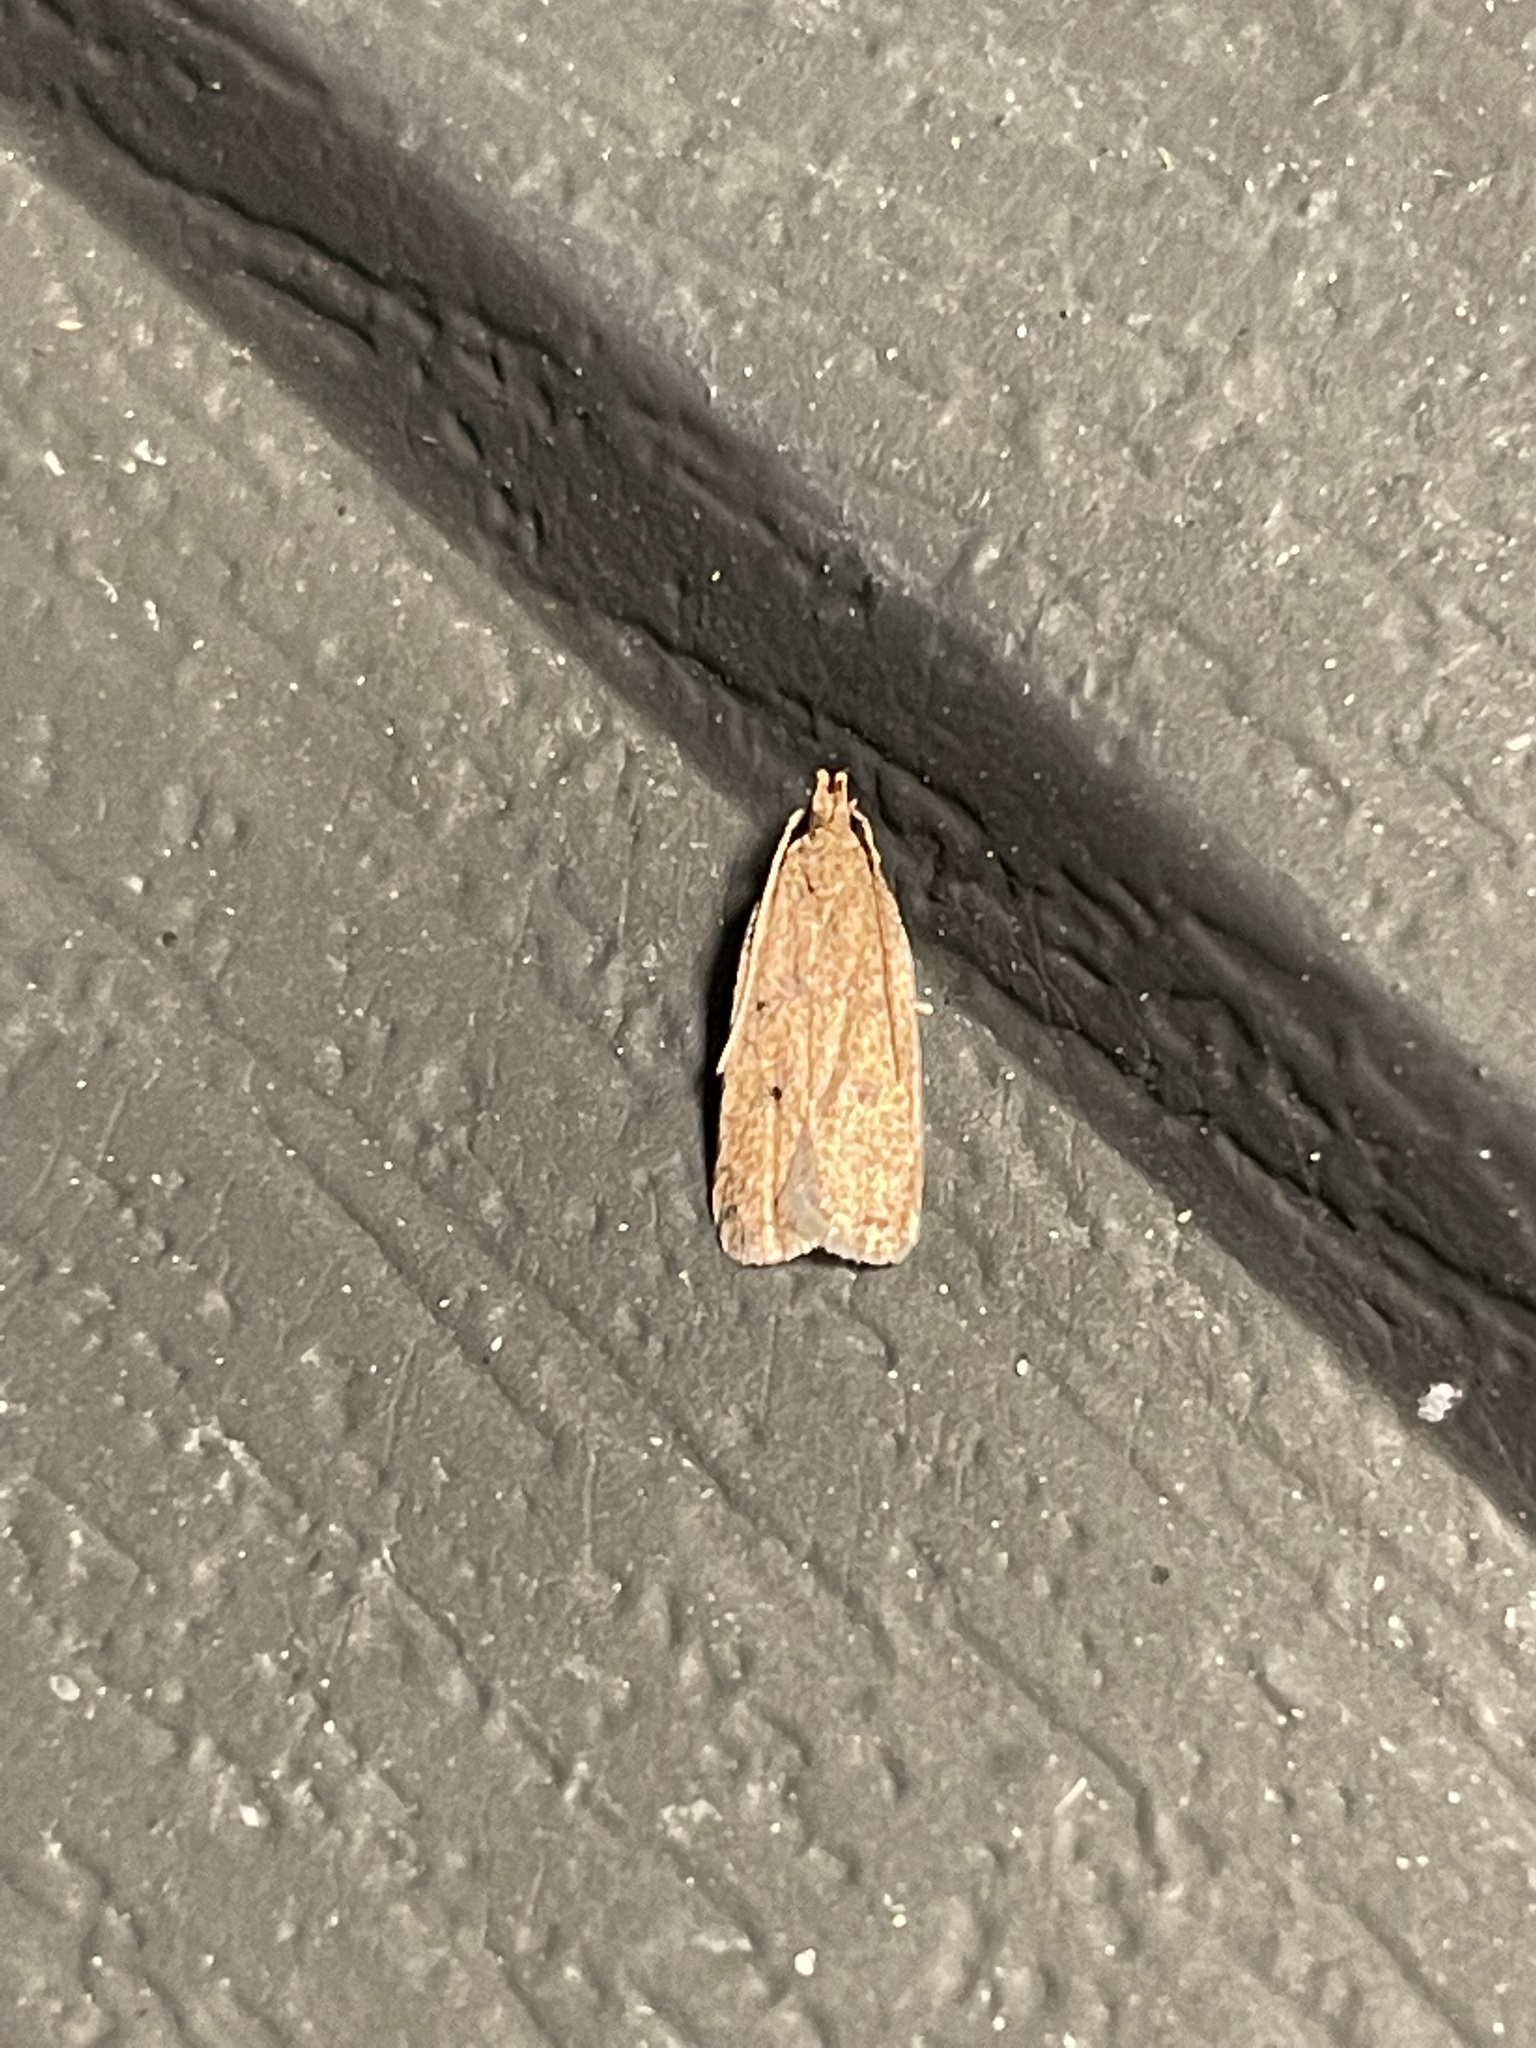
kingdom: Animalia
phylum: Arthropoda
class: Insecta
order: Lepidoptera
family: Depressariidae
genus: Psilocorsis
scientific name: Psilocorsis reflexella
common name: Dotted leaftier moth
